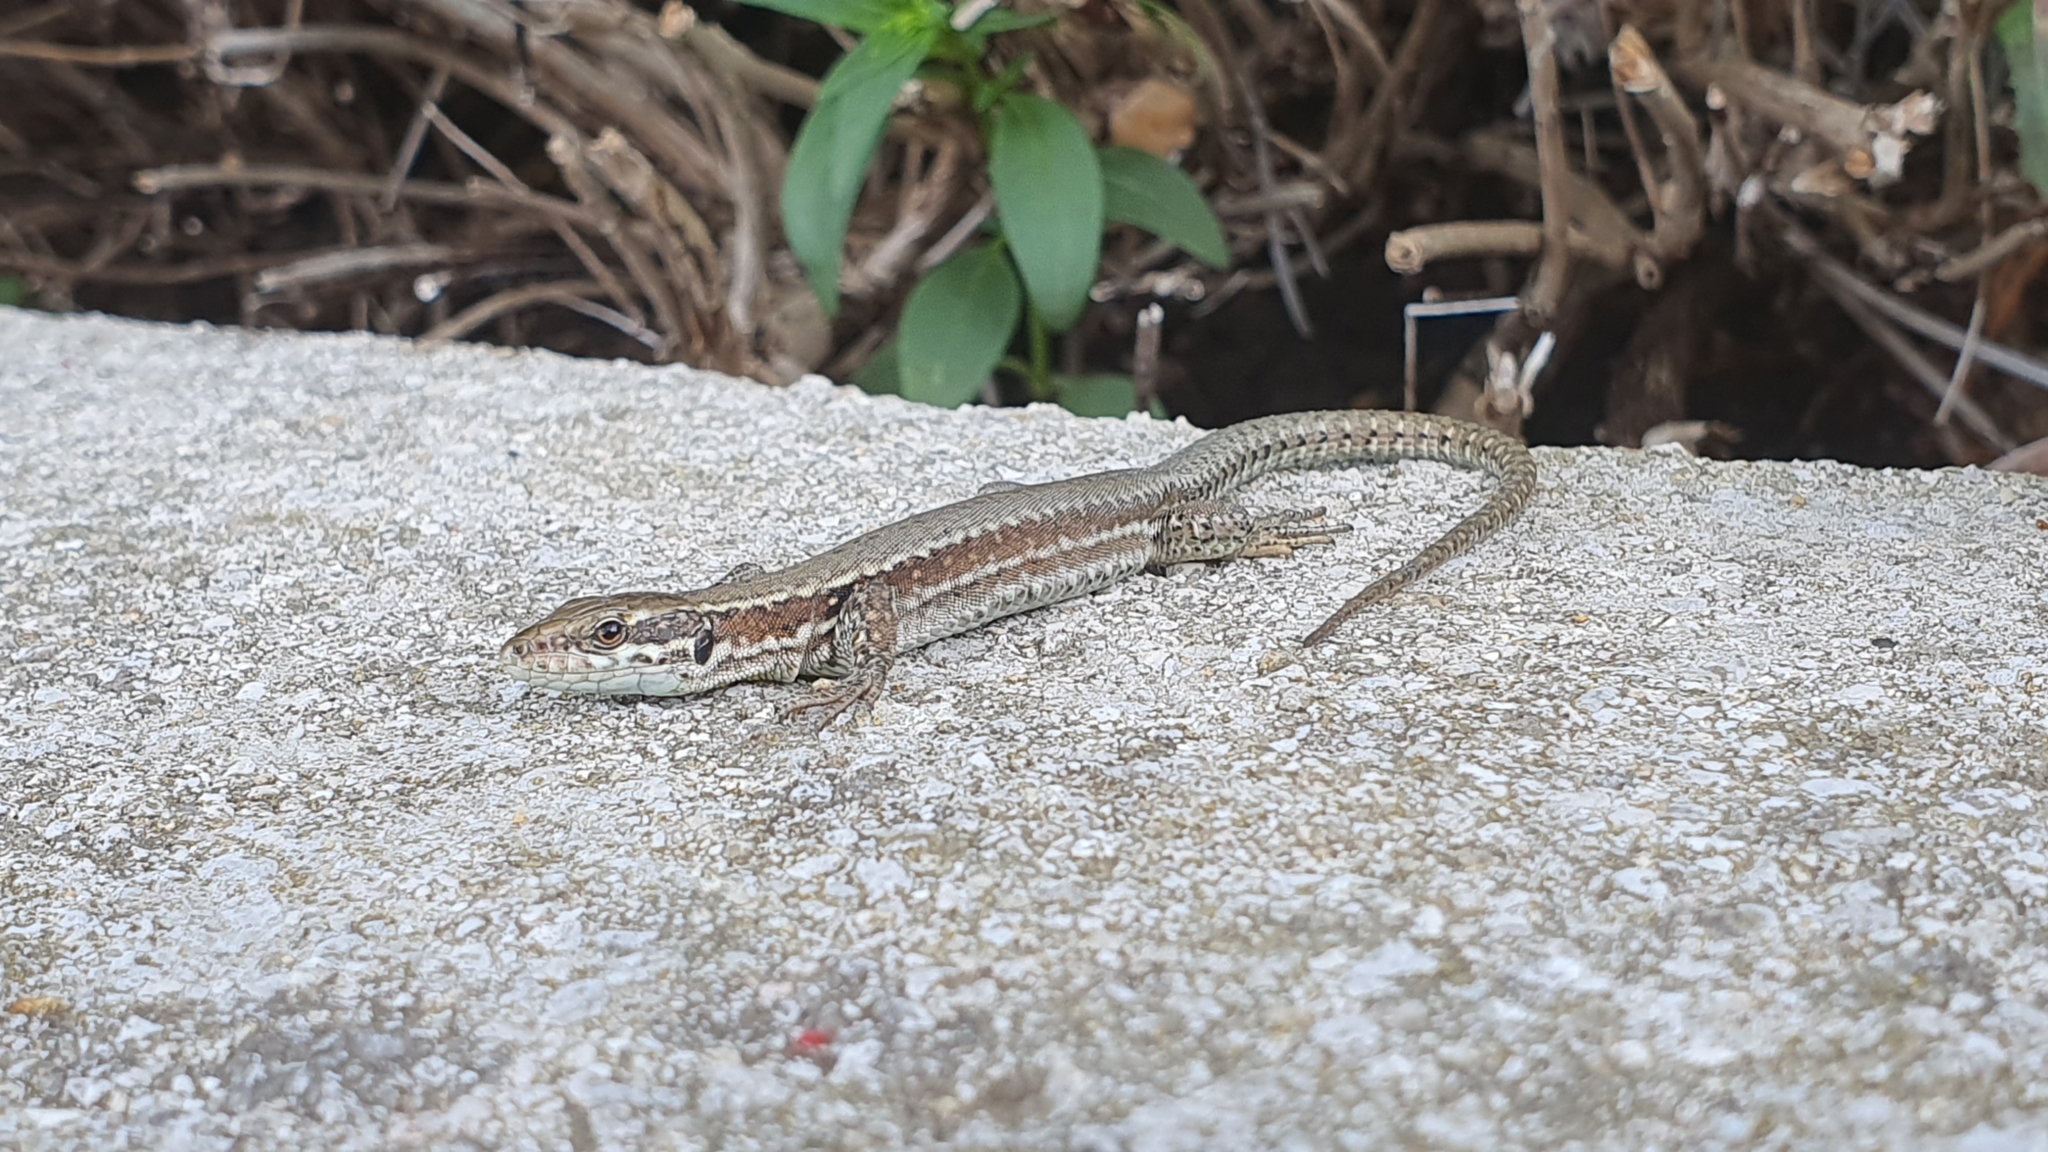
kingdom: Animalia
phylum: Chordata
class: Squamata
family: Lacertidae
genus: Podarcis
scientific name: Podarcis muralis
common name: Common wall lizard
